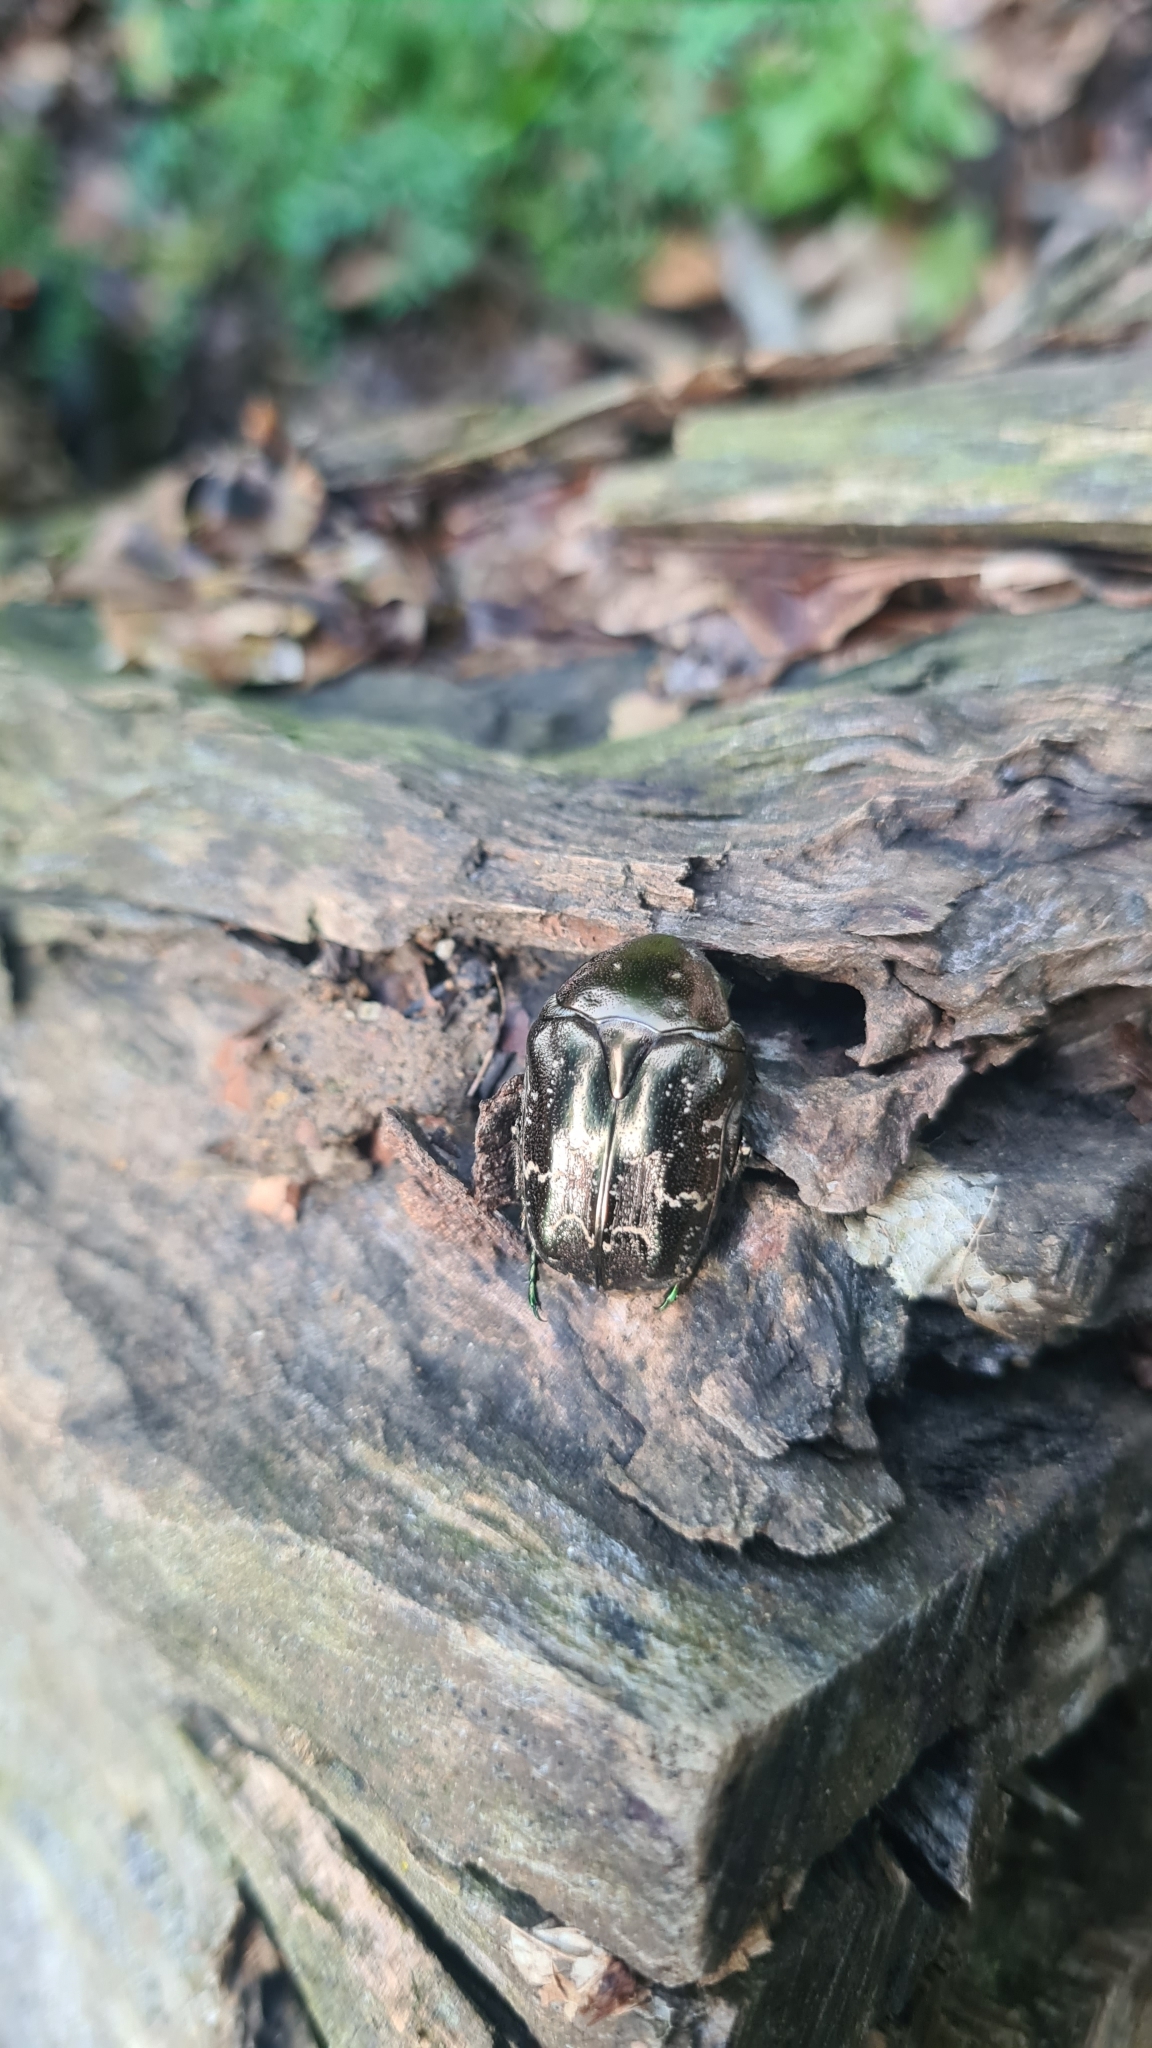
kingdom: Animalia
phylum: Arthropoda
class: Insecta
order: Coleoptera
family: Scarabaeidae
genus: Protaetia
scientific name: Protaetia cuprea
